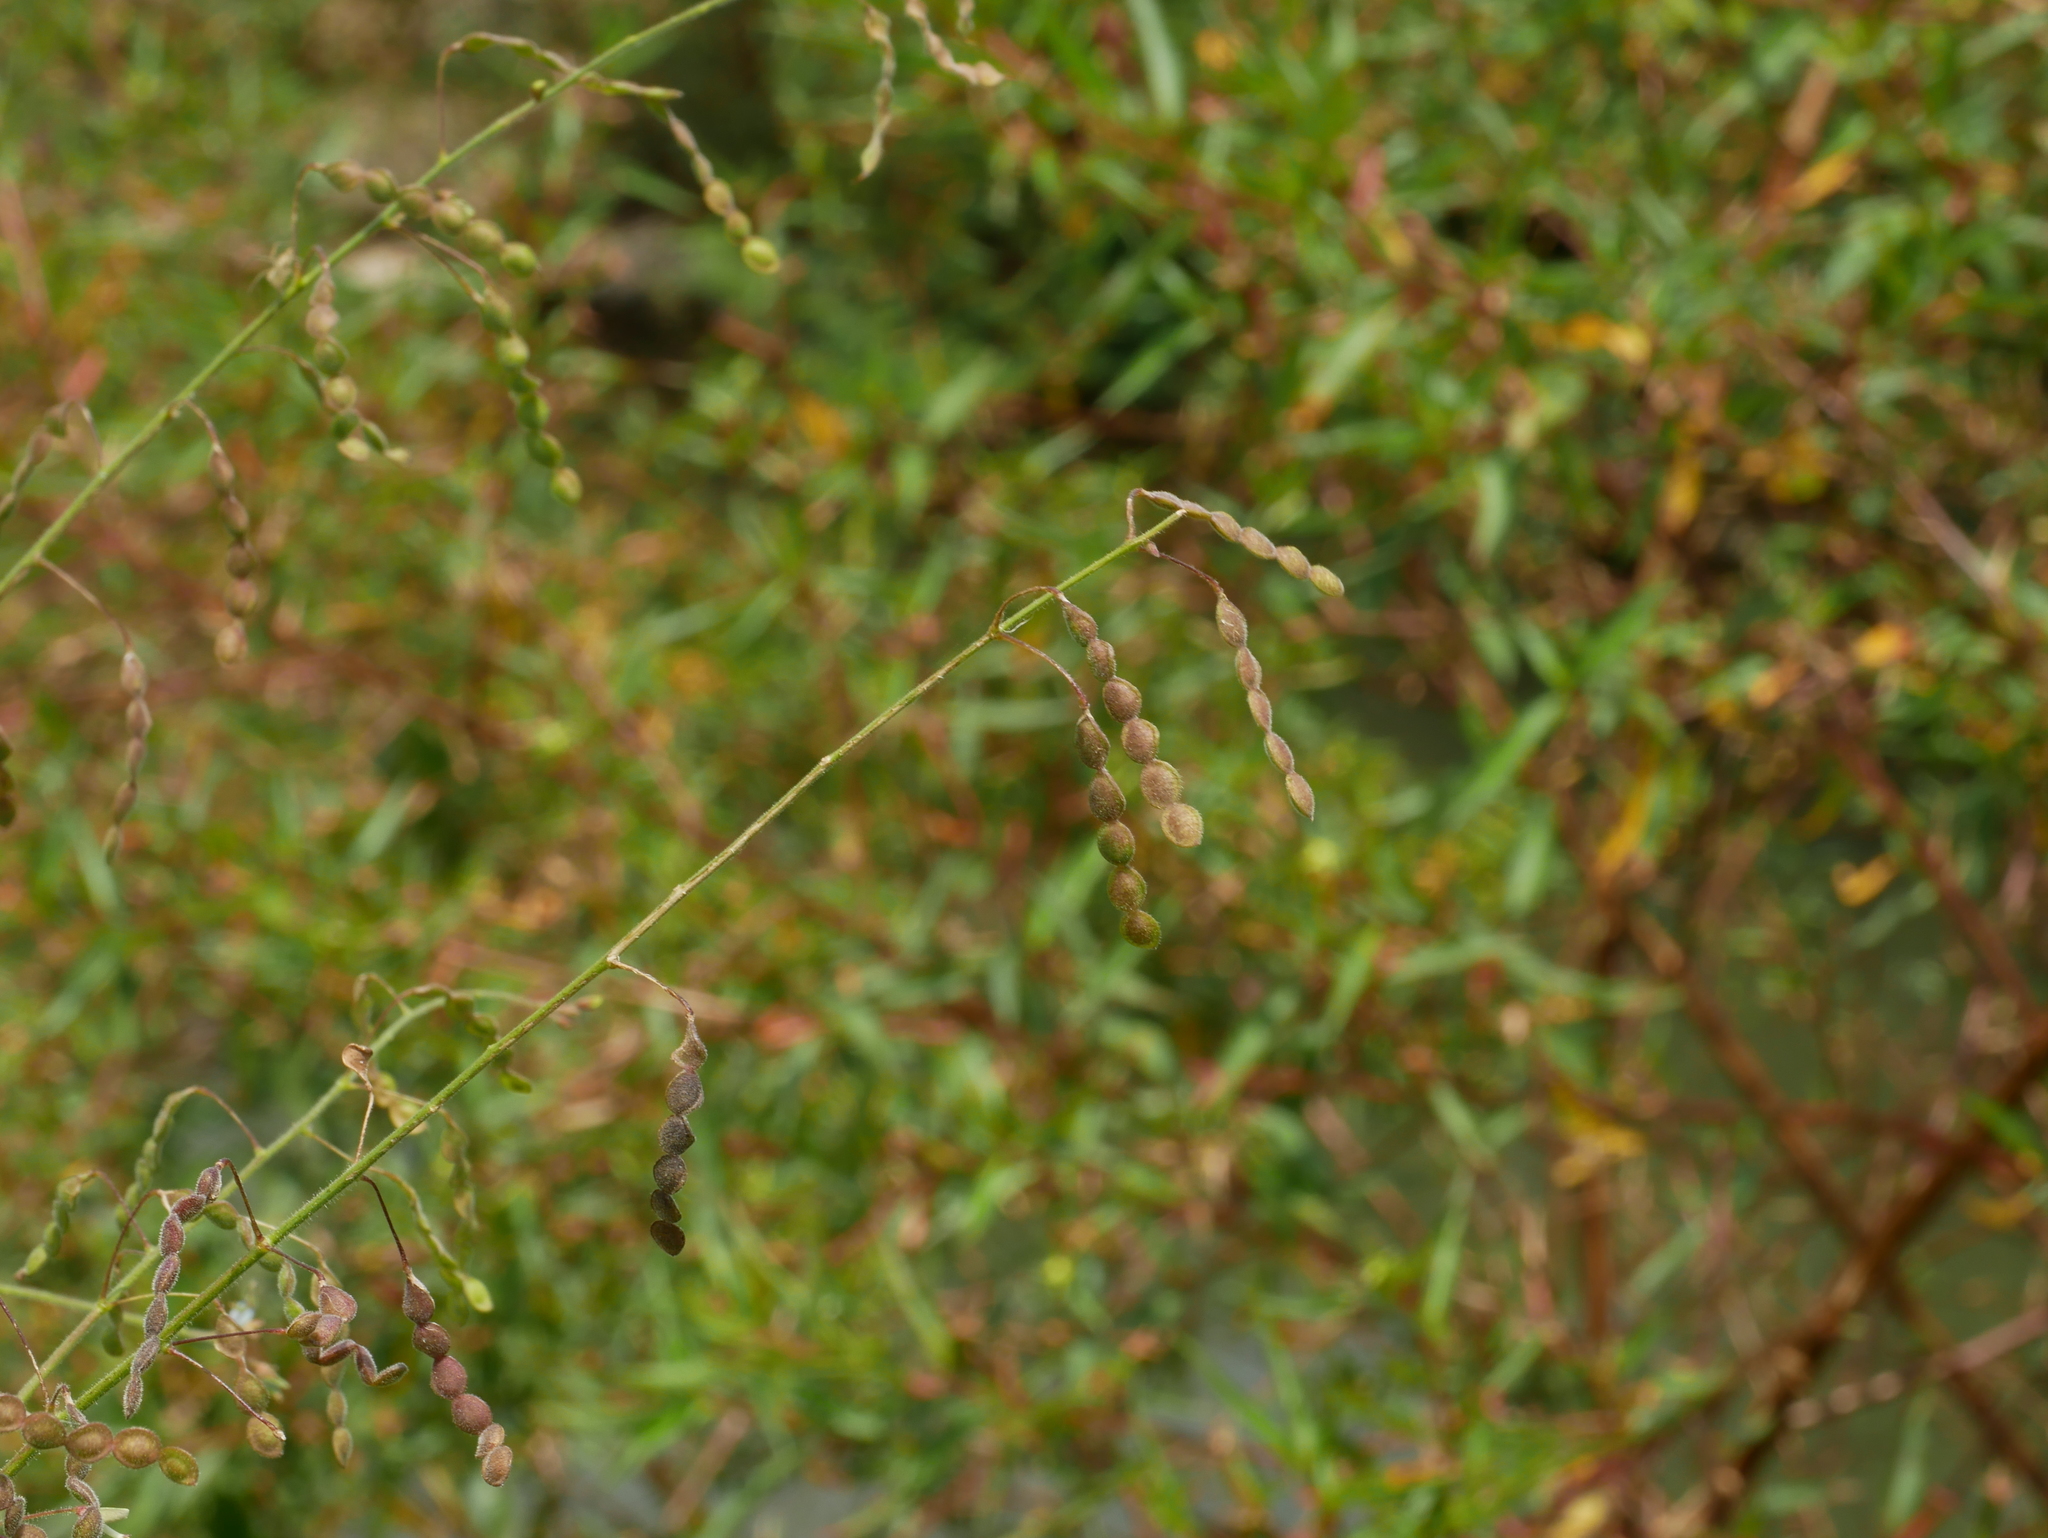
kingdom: Plantae
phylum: Tracheophyta
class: Magnoliopsida
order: Fabales
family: Fabaceae
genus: Desmodium
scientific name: Desmodium tortuosum
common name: Dixie ticktrefoil
